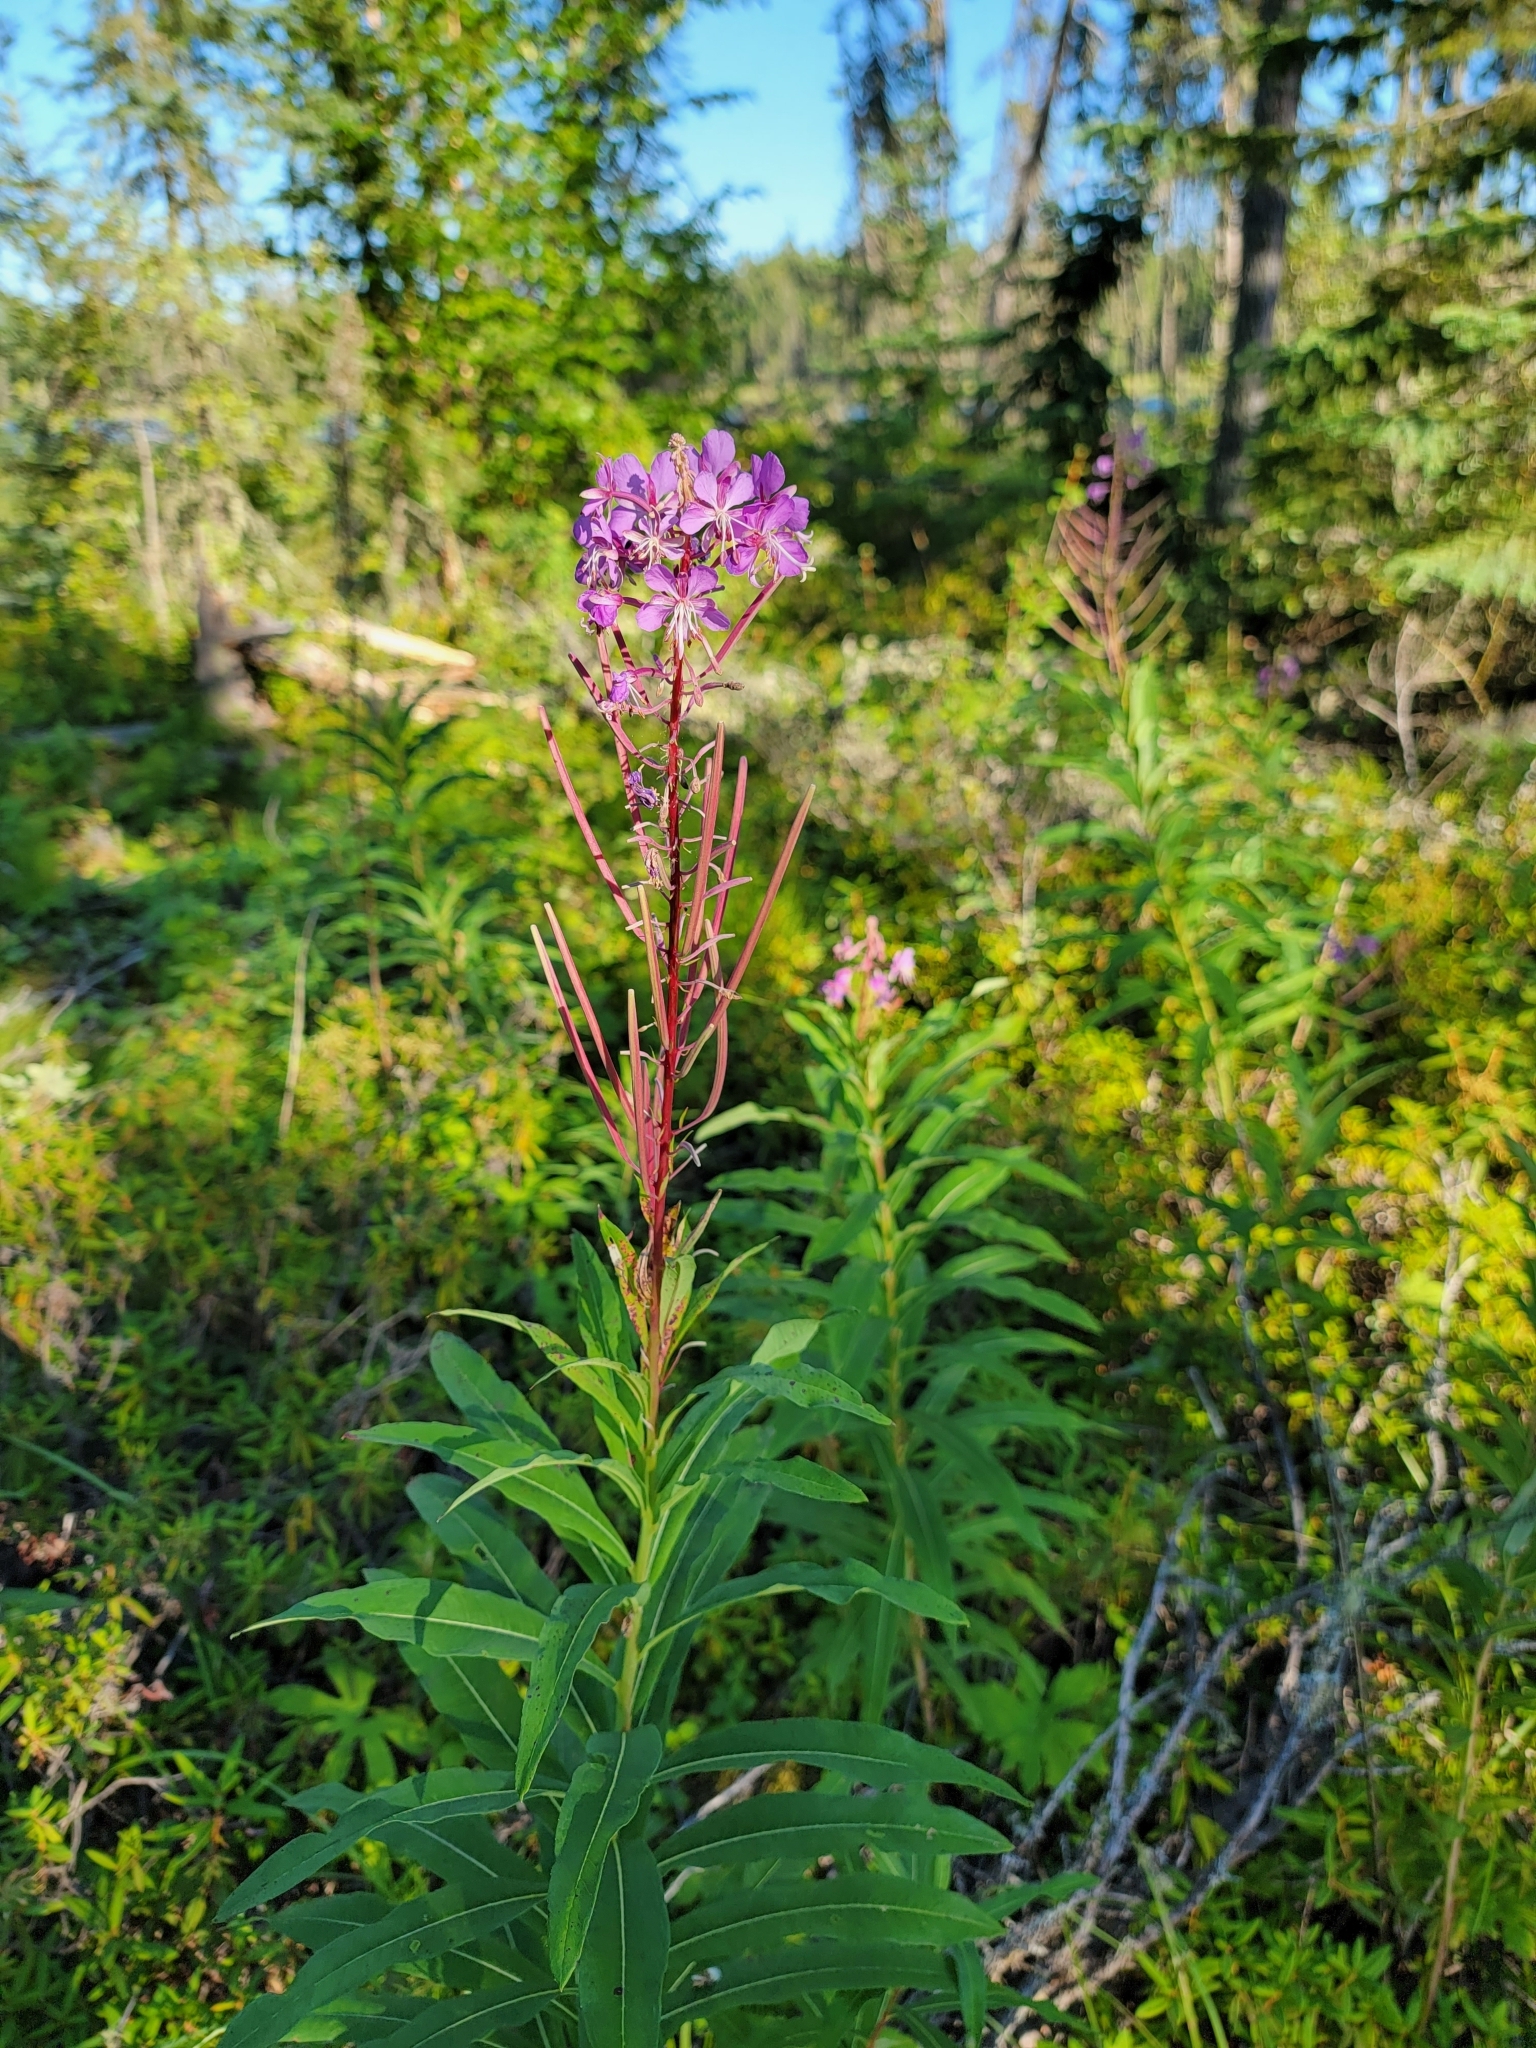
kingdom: Plantae
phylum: Tracheophyta
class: Magnoliopsida
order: Myrtales
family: Onagraceae
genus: Chamaenerion
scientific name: Chamaenerion angustifolium
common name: Fireweed
